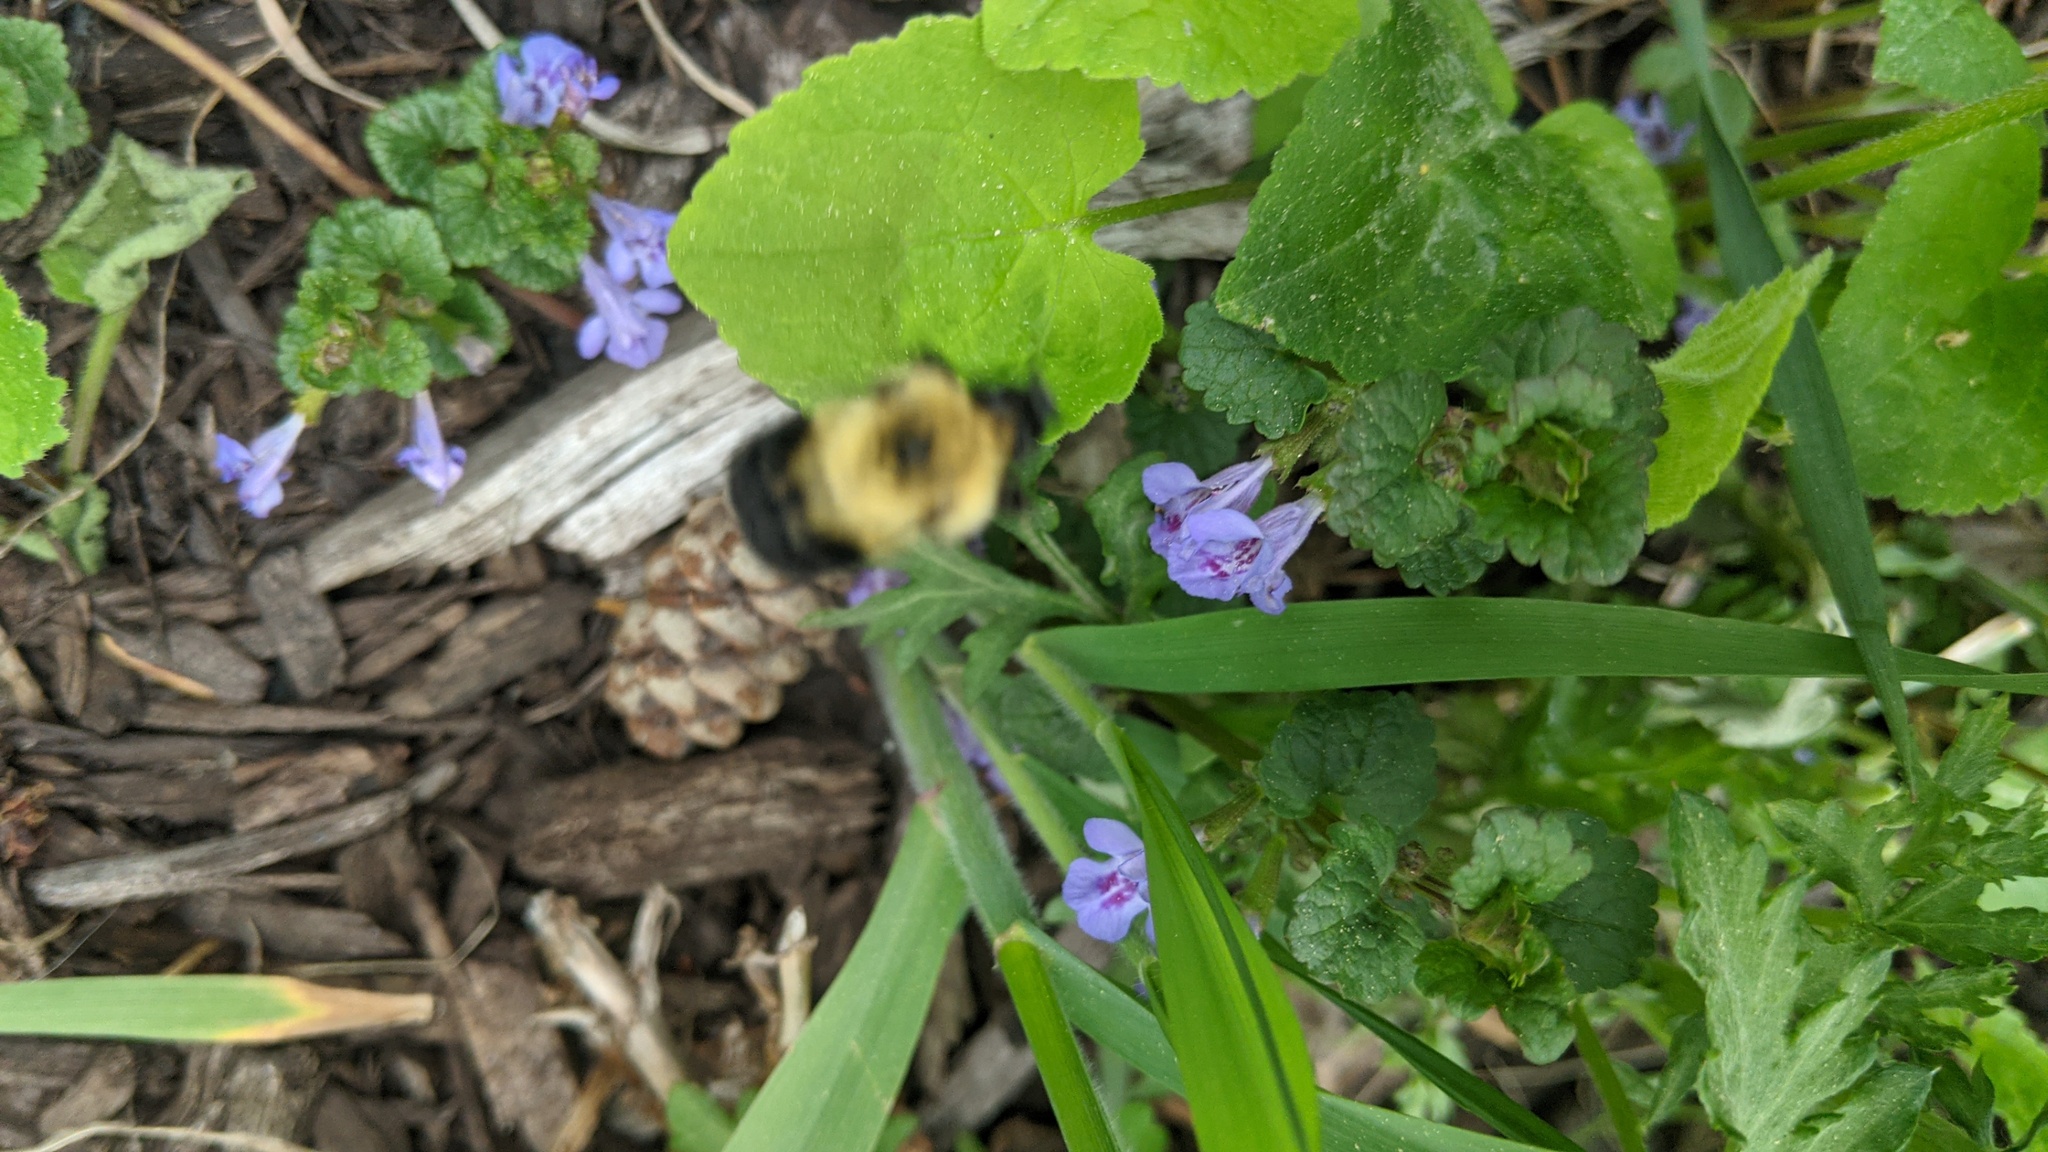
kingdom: Animalia
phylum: Arthropoda
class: Insecta
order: Hymenoptera
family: Apidae
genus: Bombus
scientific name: Bombus bimaculatus
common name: Two-spotted bumble bee
